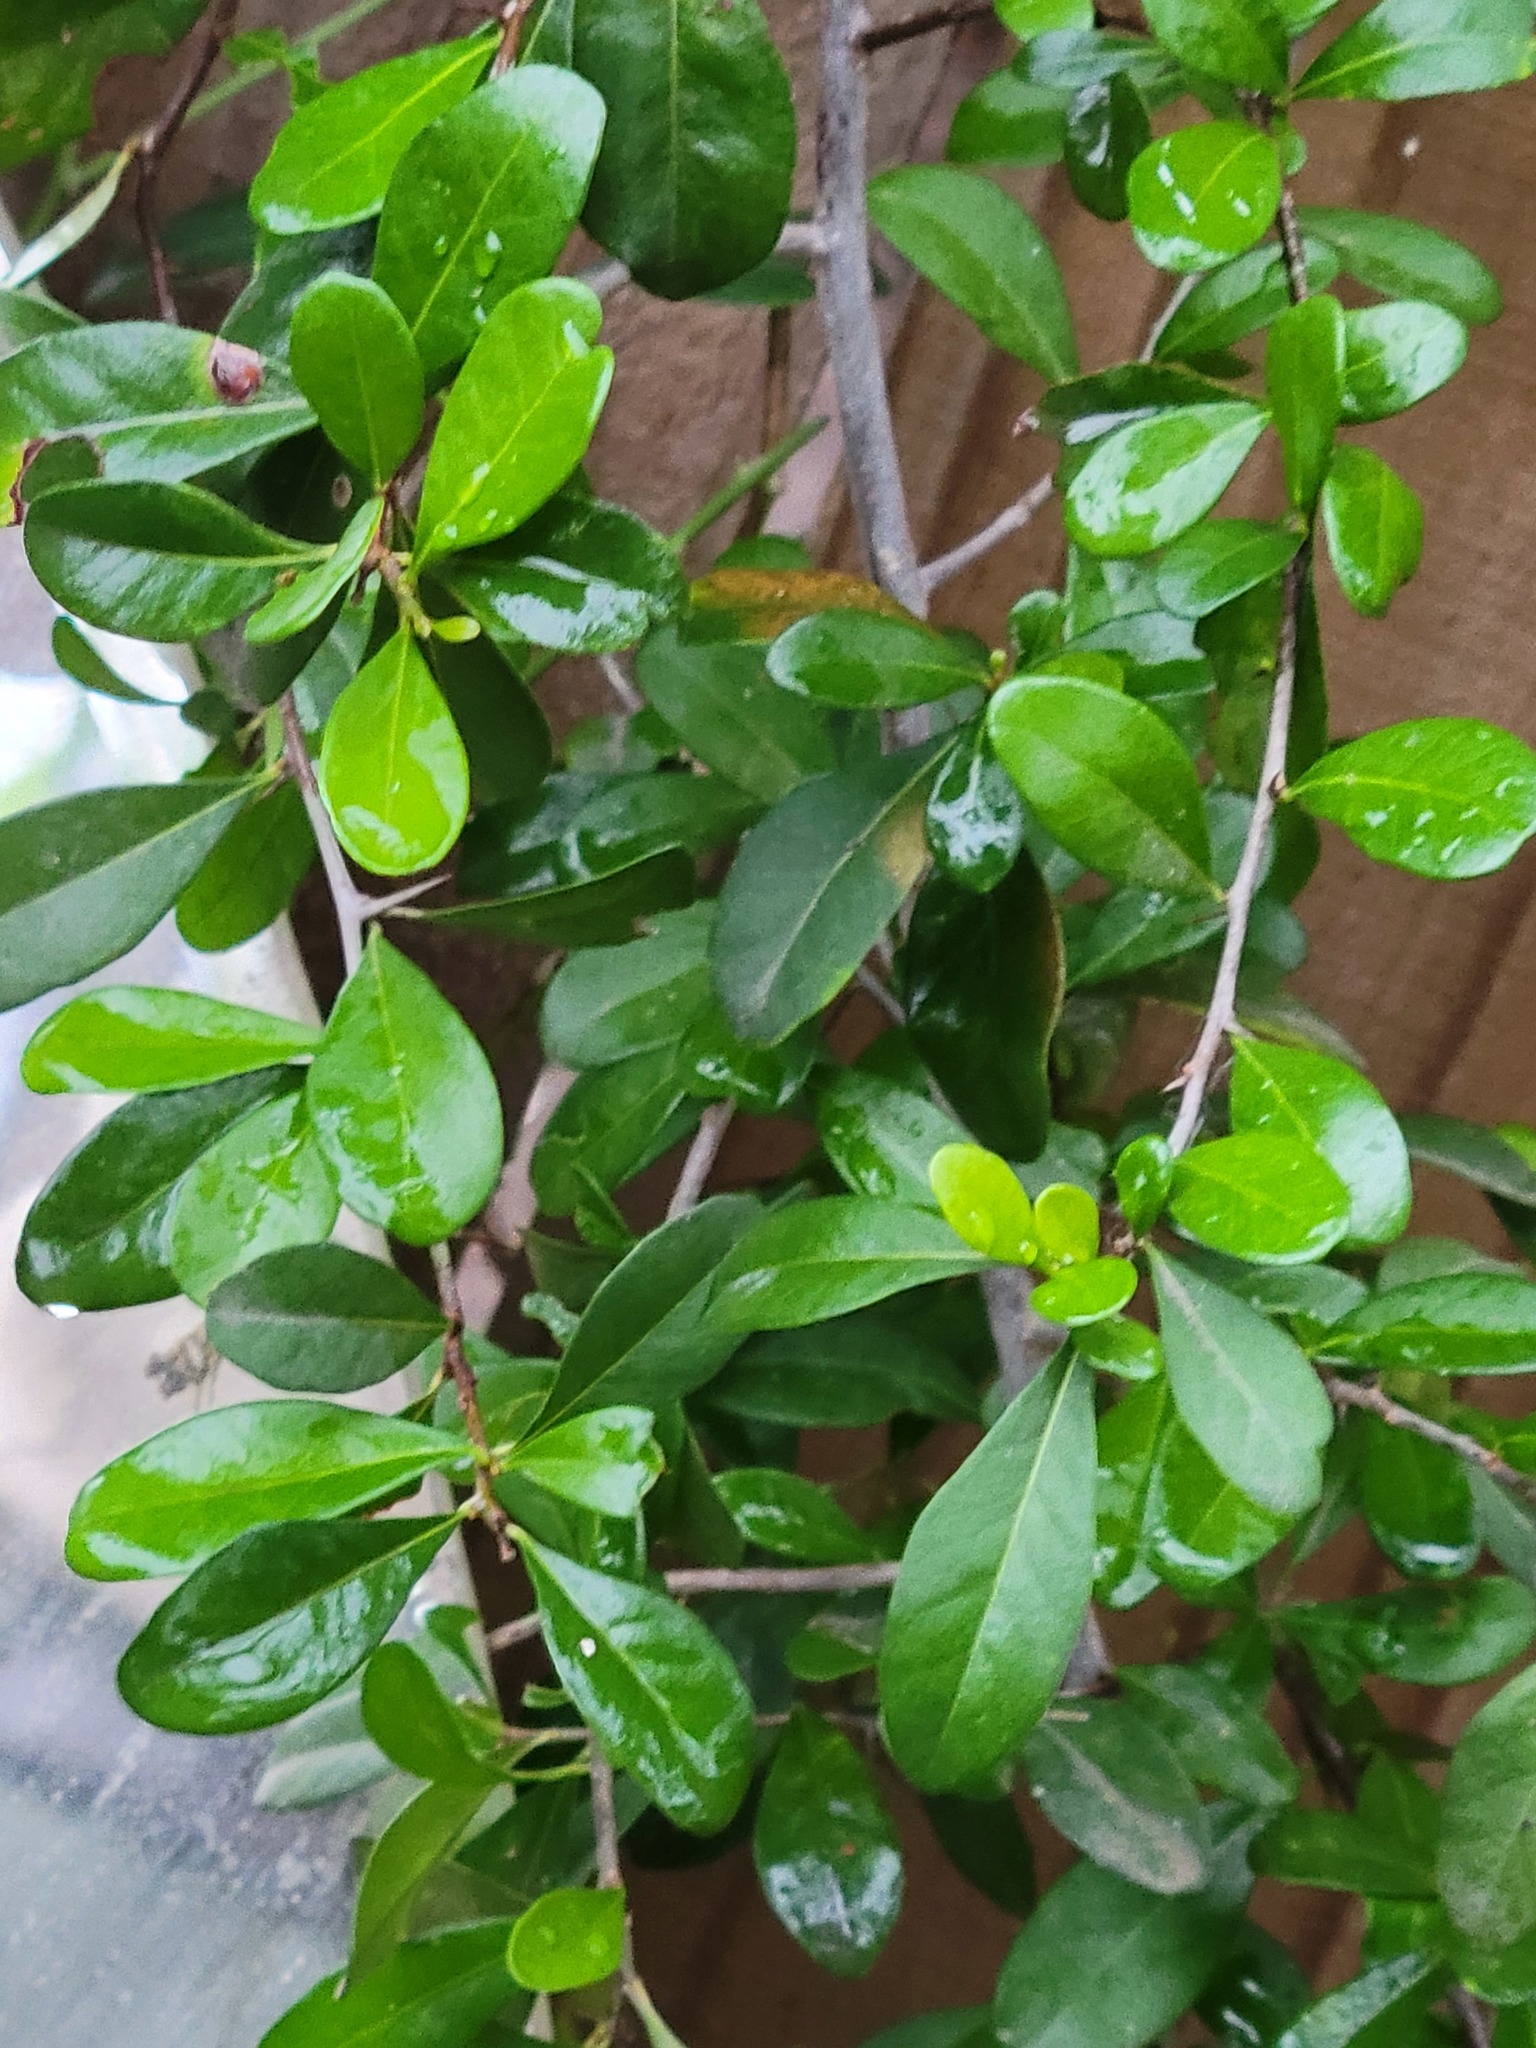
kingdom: Plantae
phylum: Tracheophyta
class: Magnoliopsida
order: Ericales
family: Sapotaceae
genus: Sideroxylon
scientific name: Sideroxylon celastrinum
